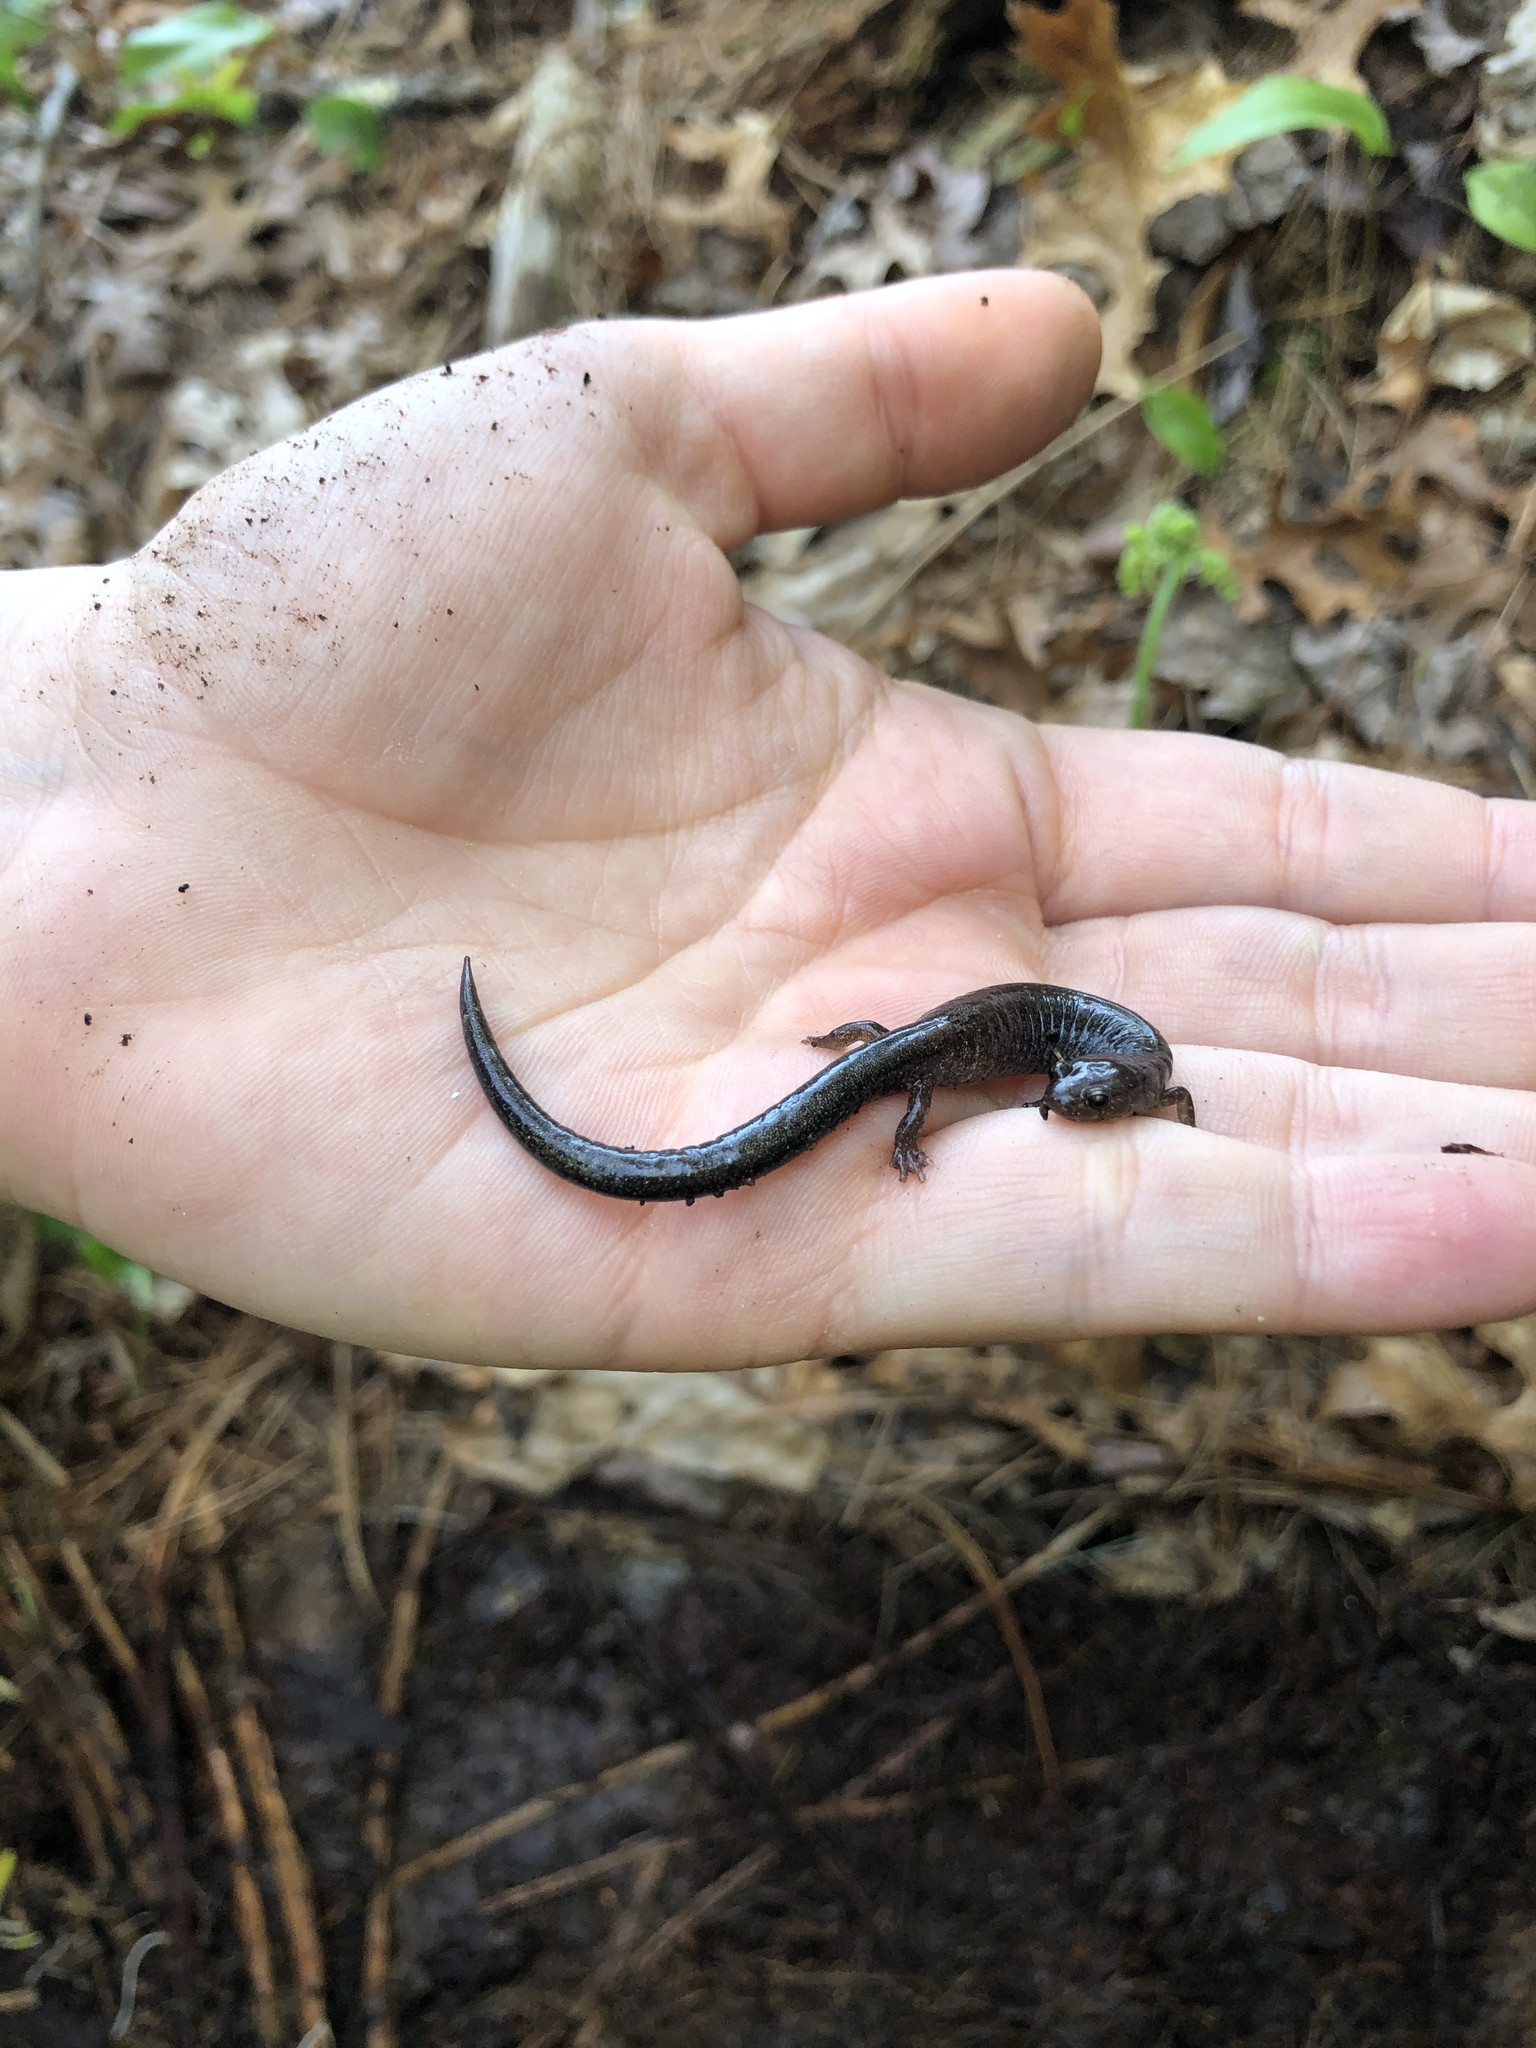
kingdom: Animalia
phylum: Chordata
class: Amphibia
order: Caudata
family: Plethodontidae
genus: Plethodon
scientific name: Plethodon cinereus
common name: Redback salamander
